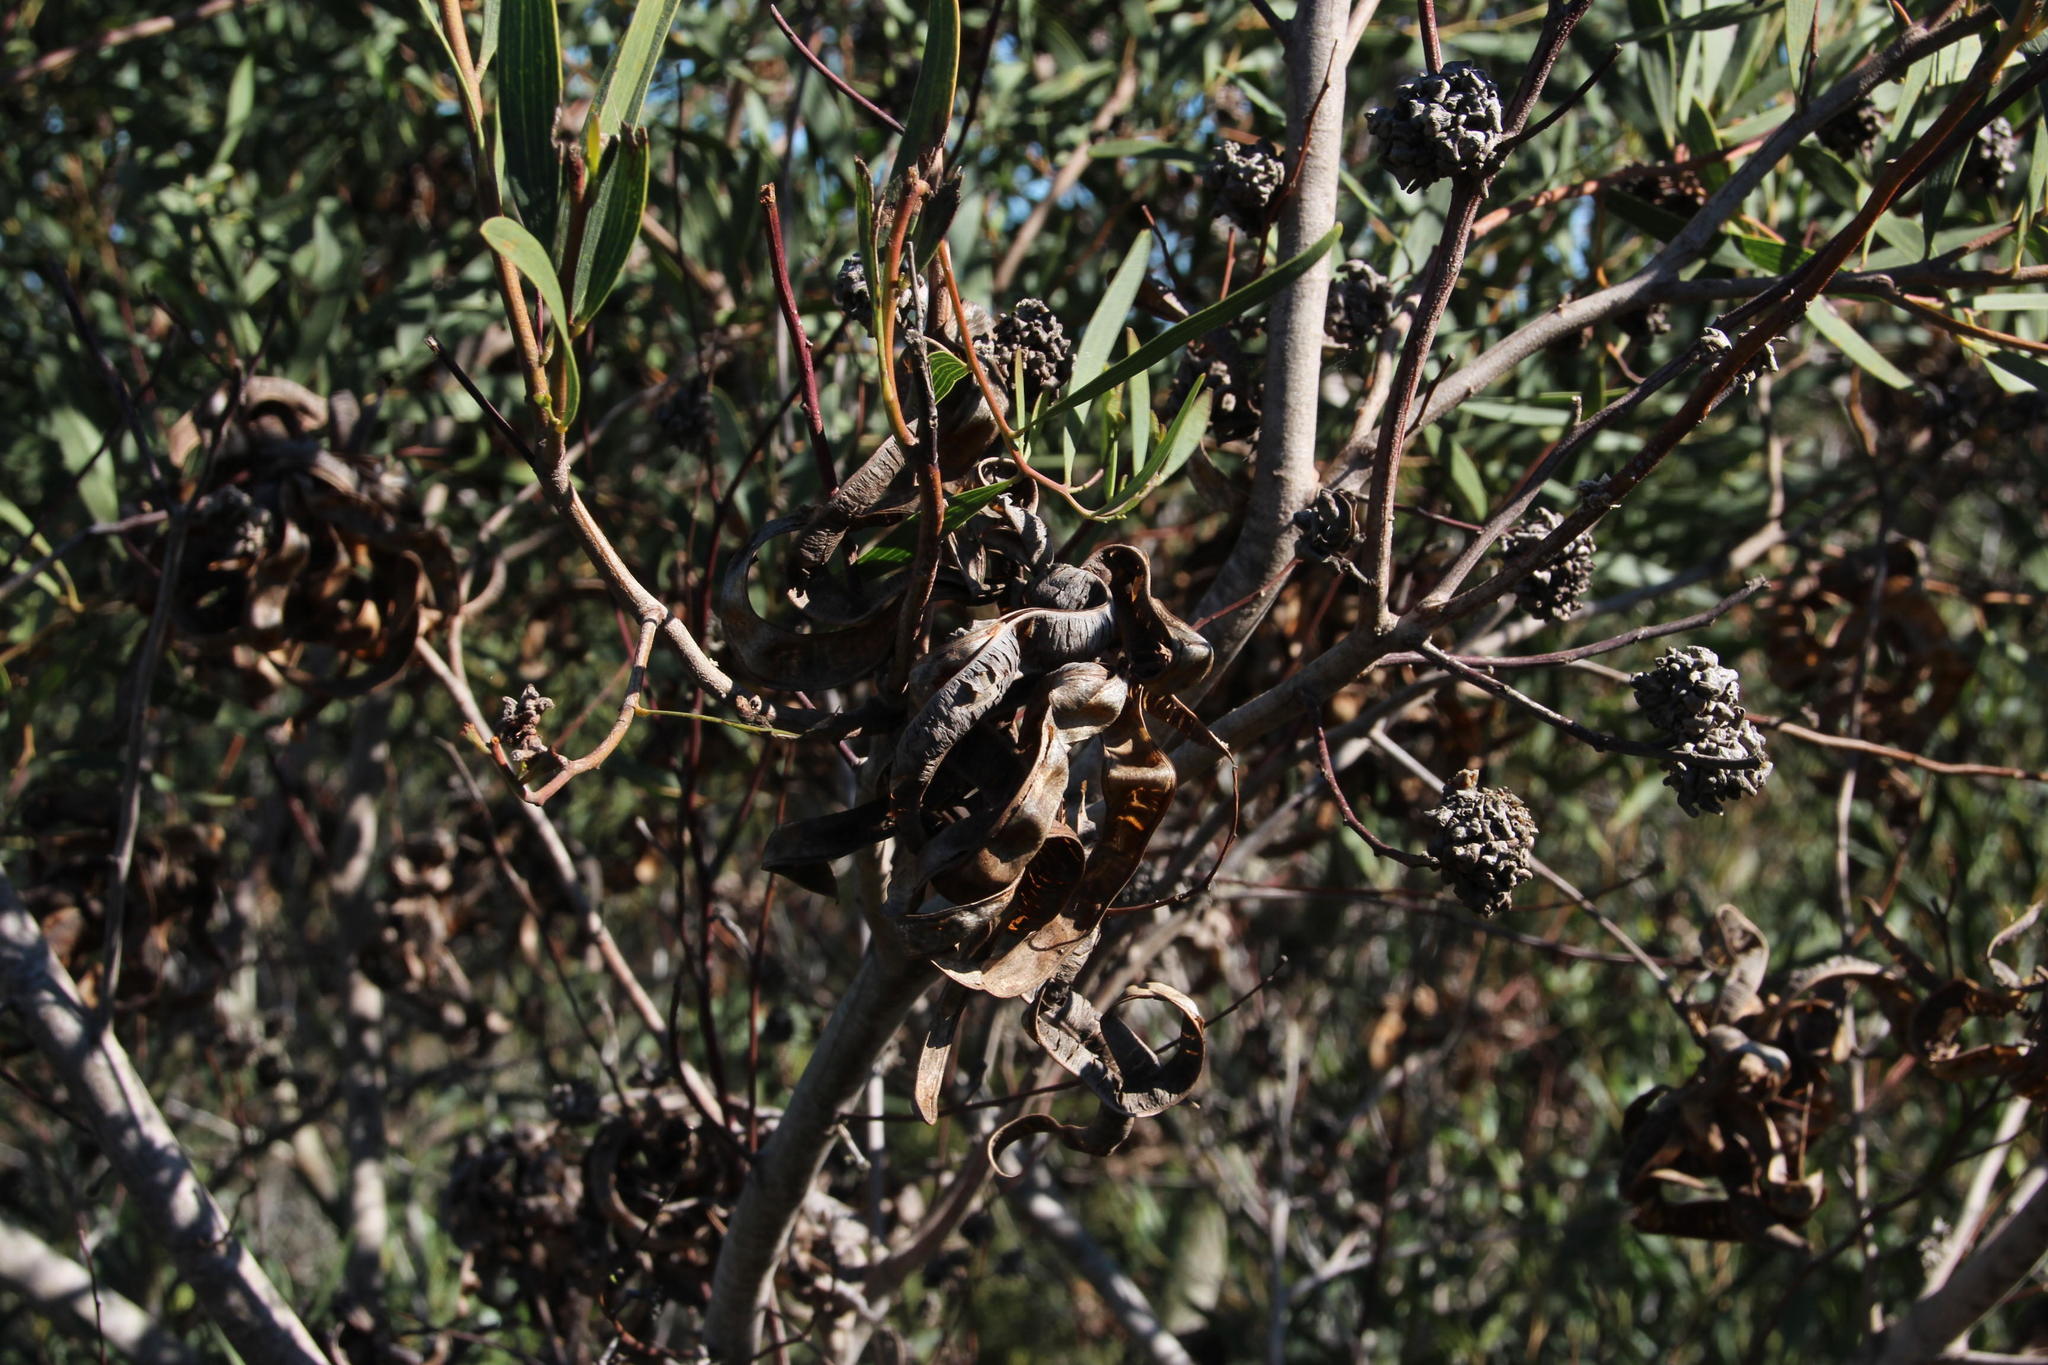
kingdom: Plantae
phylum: Tracheophyta
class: Magnoliopsida
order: Fabales
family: Fabaceae
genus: Acacia
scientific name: Acacia cyclops
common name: Coastal wattle
